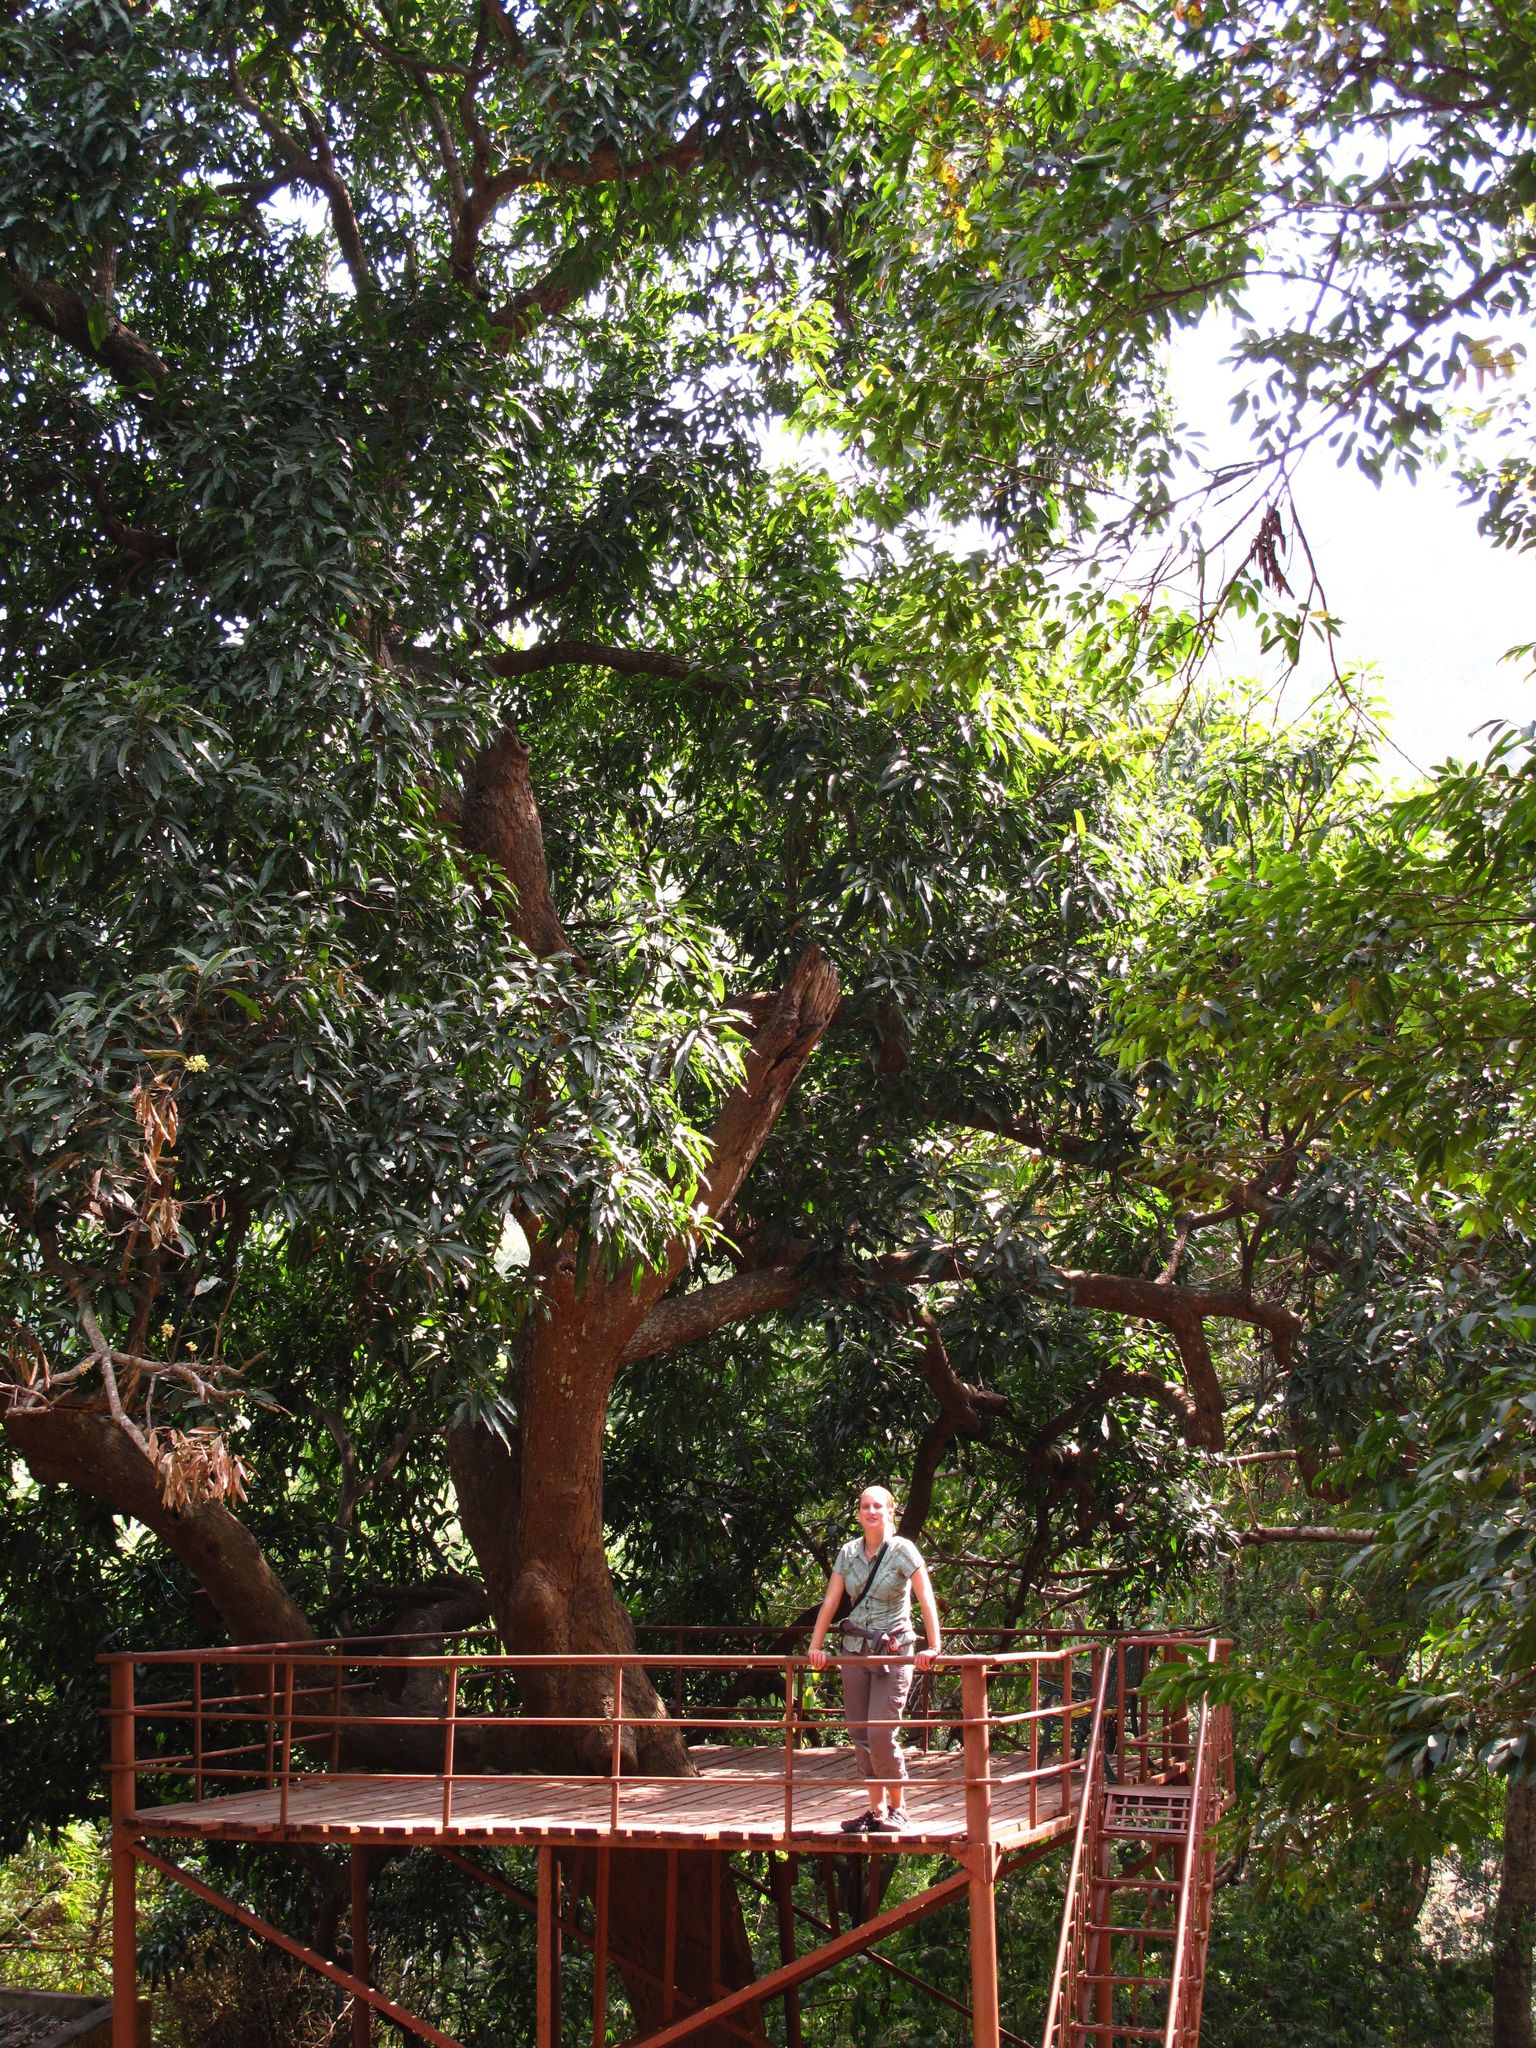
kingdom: Plantae
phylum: Tracheophyta
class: Magnoliopsida
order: Sapindales
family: Anacardiaceae
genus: Mangifera
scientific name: Mangifera indica
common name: Mango
